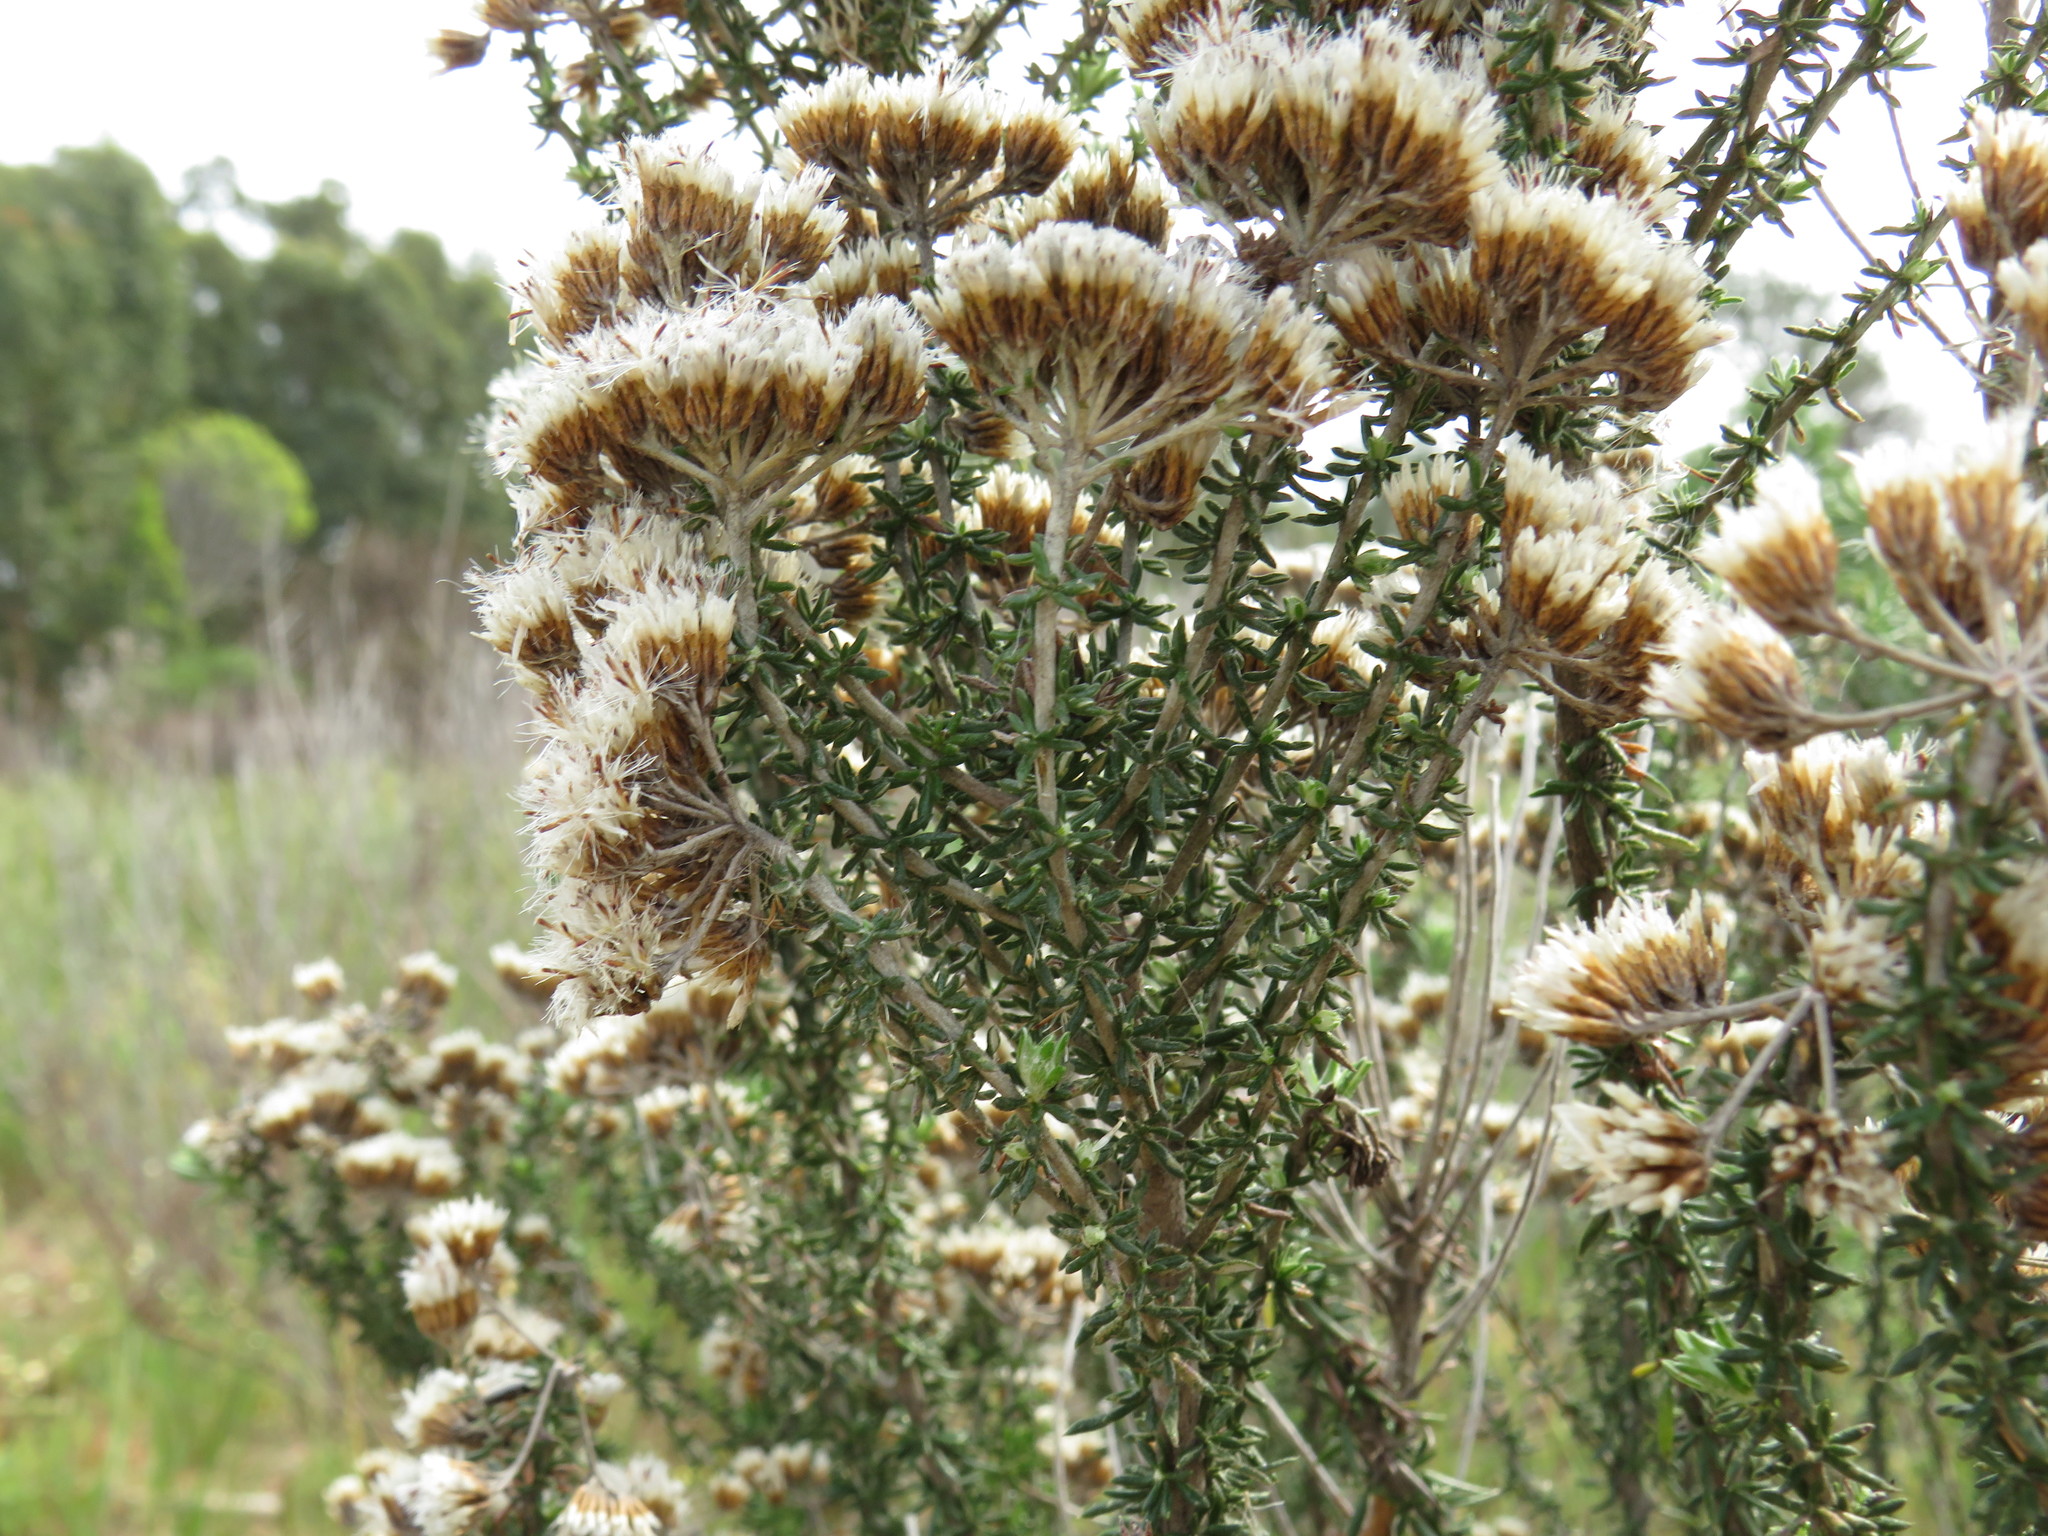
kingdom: Plantae
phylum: Tracheophyta
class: Magnoliopsida
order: Asterales
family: Asteraceae
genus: Metalasia
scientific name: Metalasia densa
